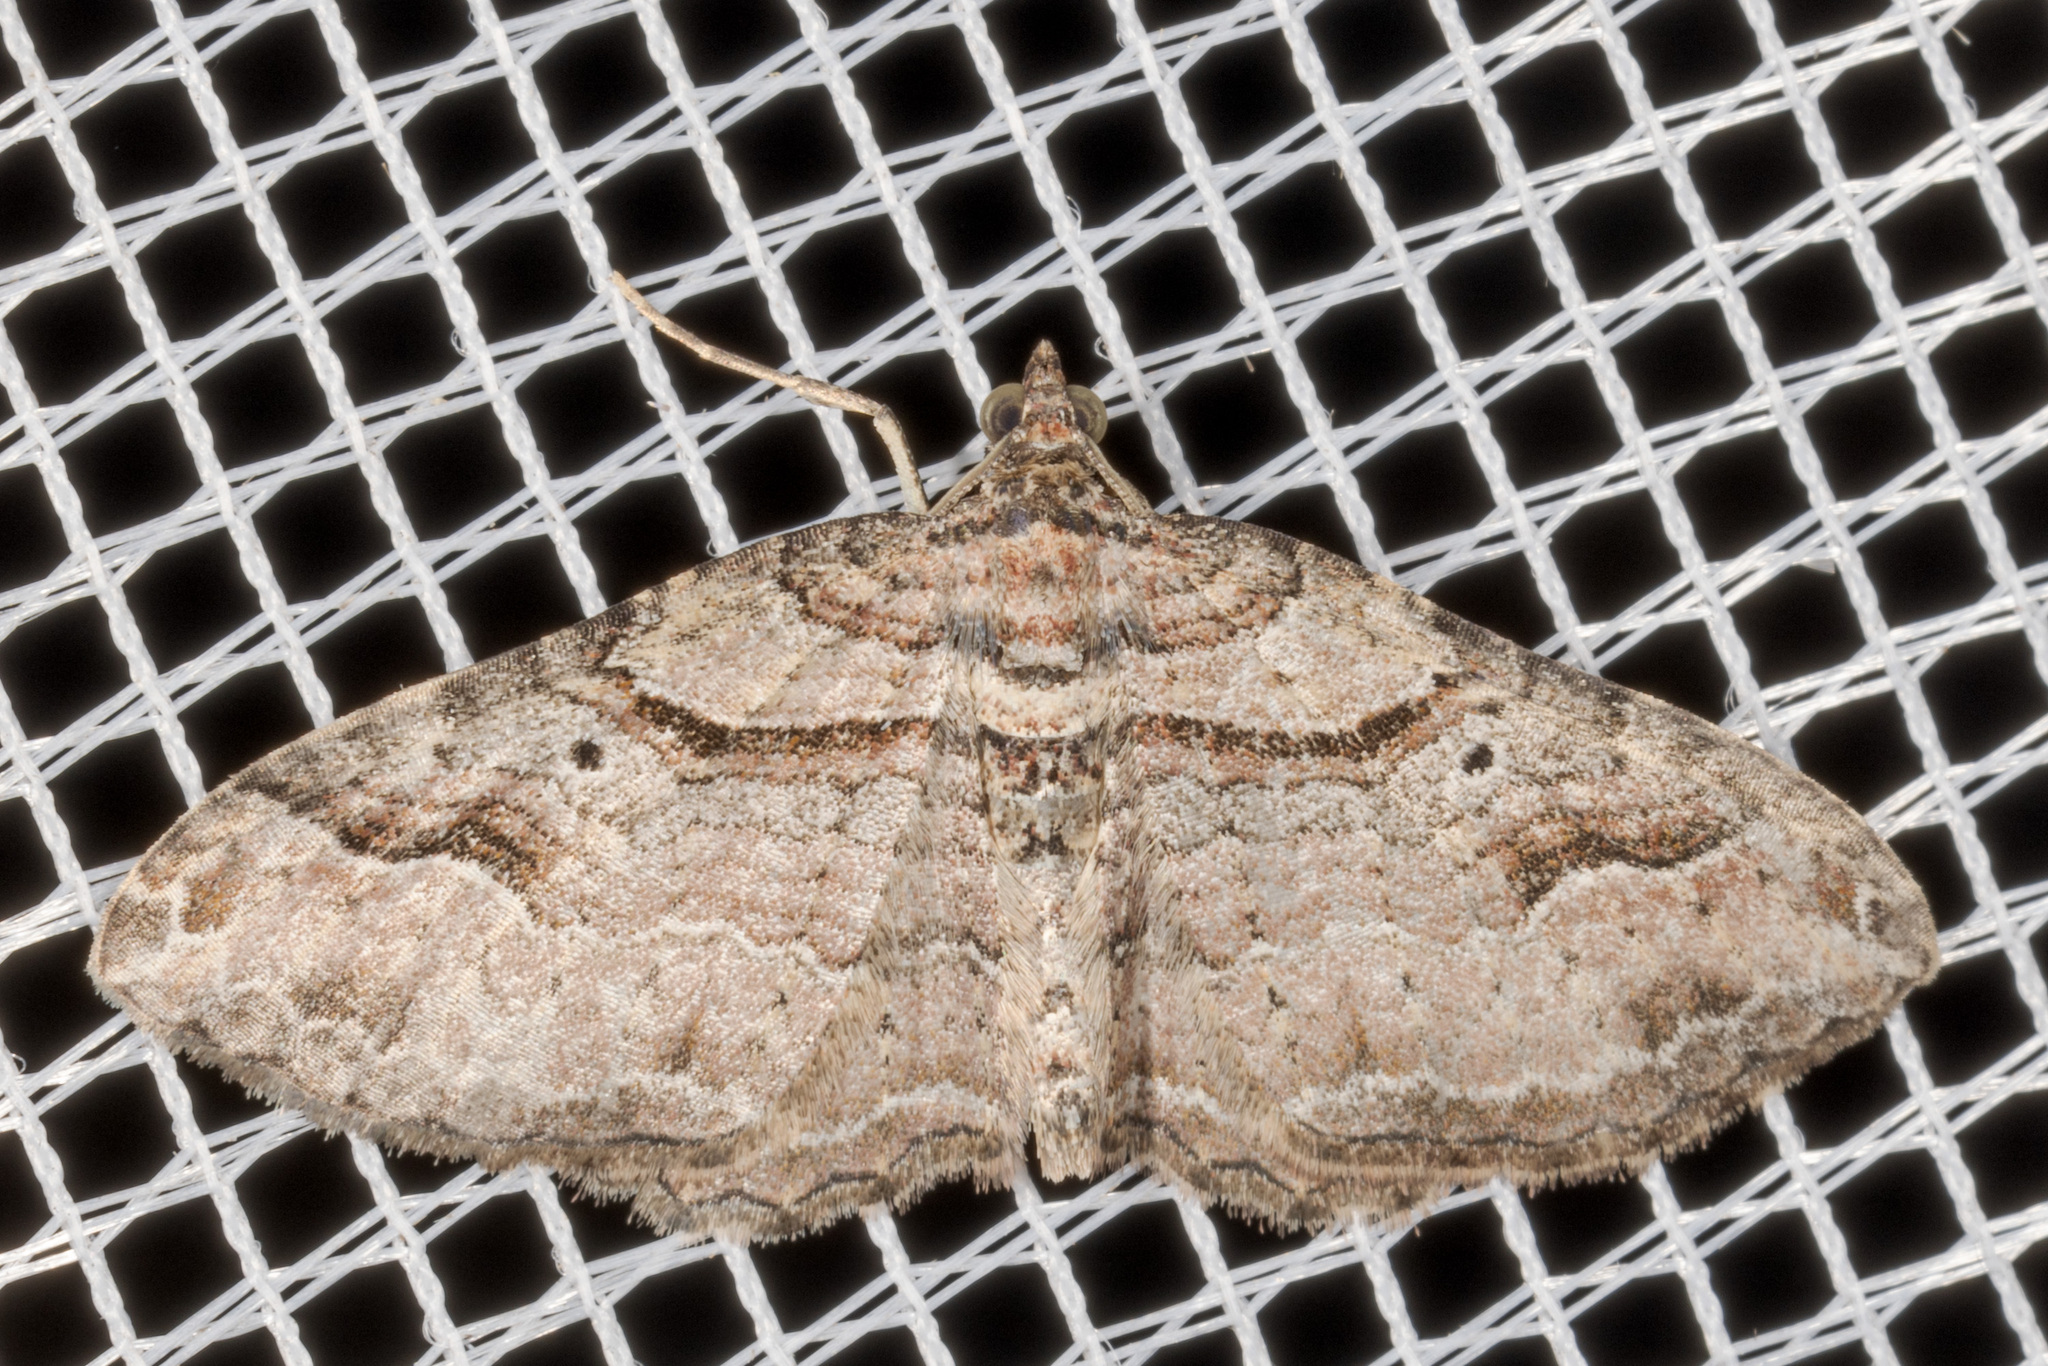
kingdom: Animalia
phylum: Arthropoda
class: Insecta
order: Lepidoptera
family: Geometridae
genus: Costaconvexa
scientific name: Costaconvexa centrostrigaria
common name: Bent-line carpet
